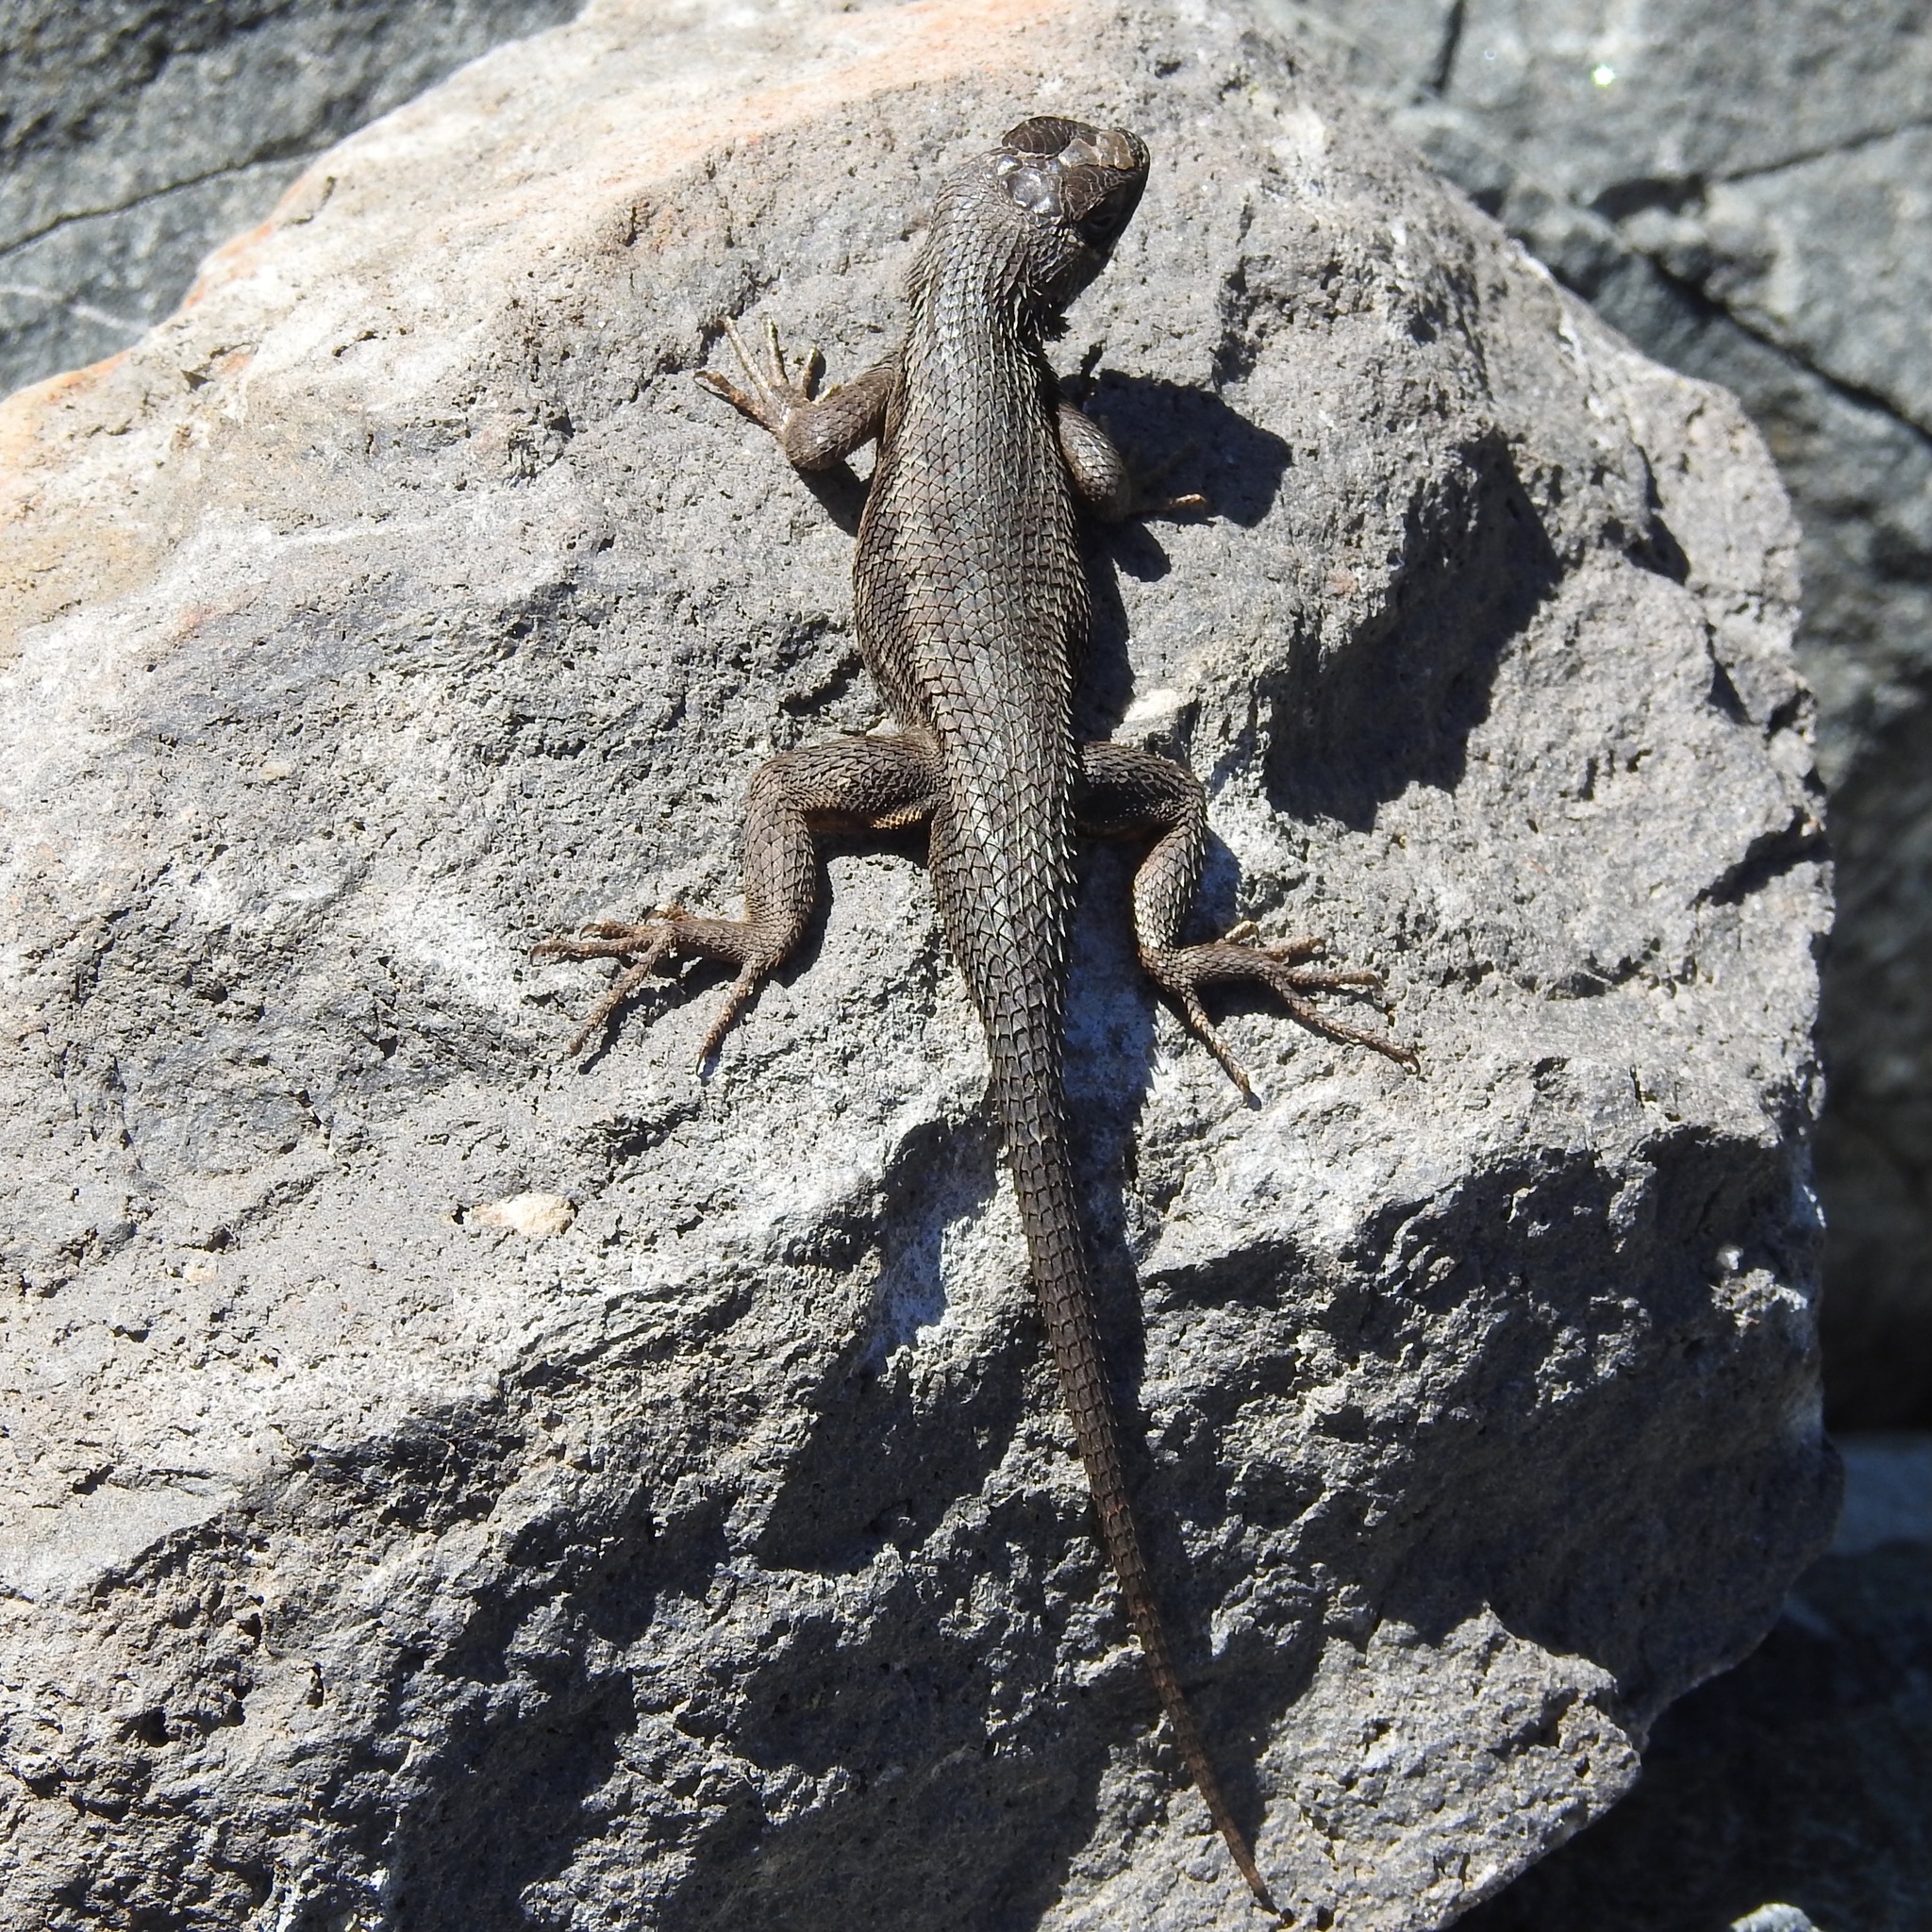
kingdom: Animalia
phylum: Chordata
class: Squamata
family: Phrynosomatidae
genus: Sceloporus
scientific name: Sceloporus occidentalis
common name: Western fence lizard
